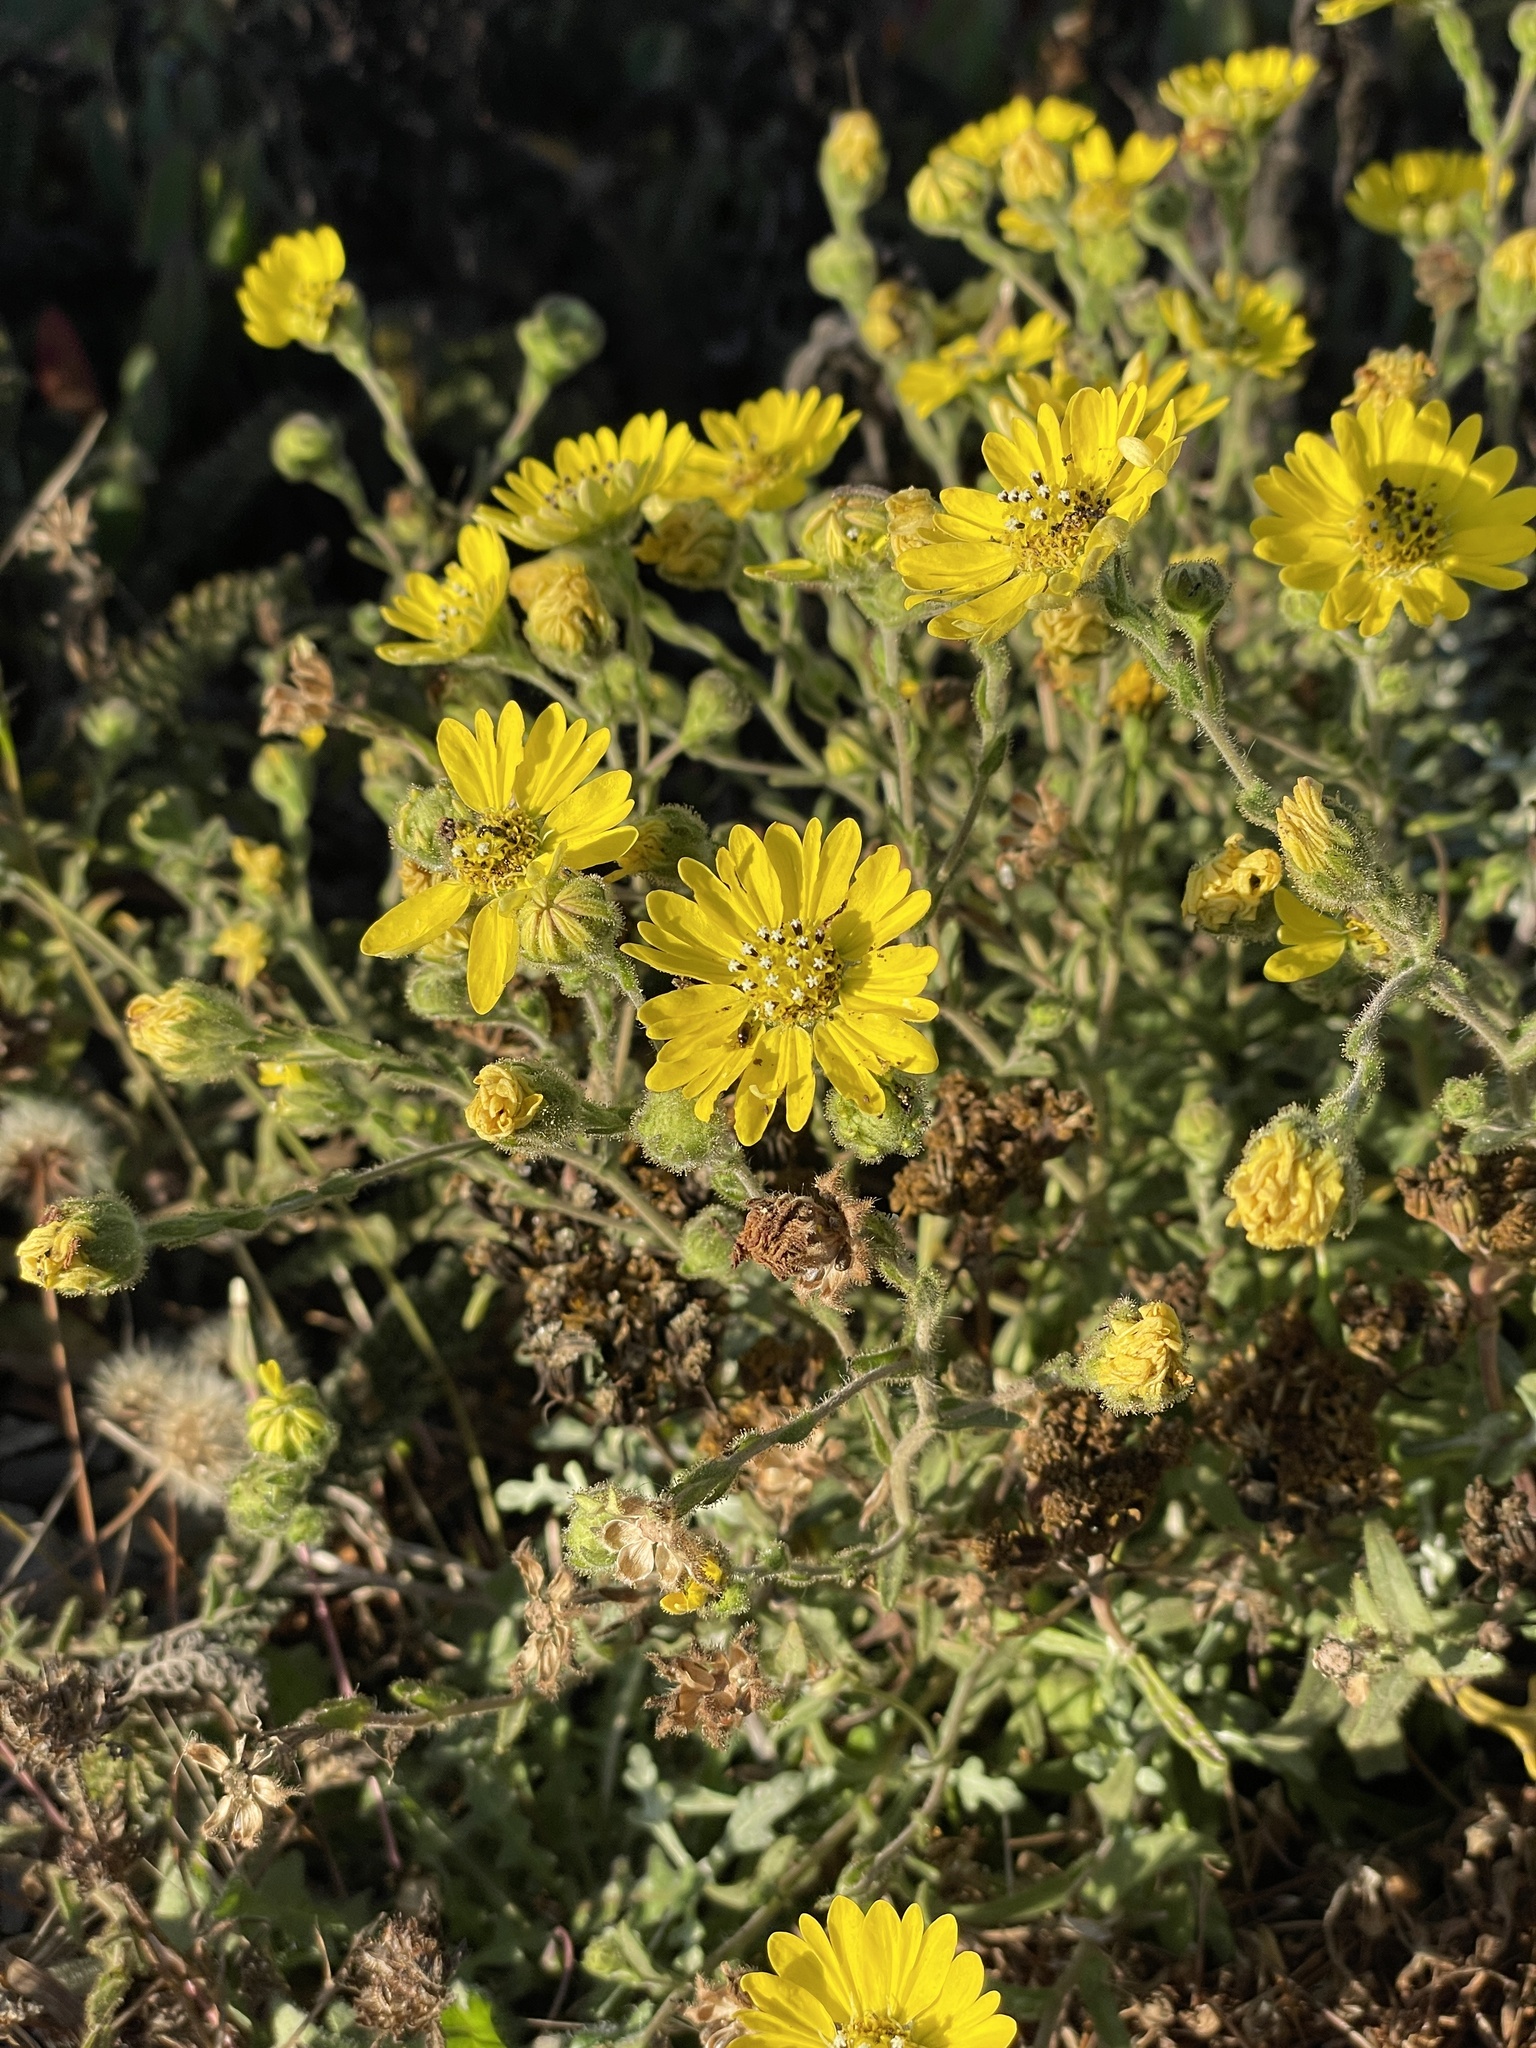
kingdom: Plantae
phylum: Tracheophyta
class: Magnoliopsida
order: Asterales
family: Asteraceae
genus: Hemizonia
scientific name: Hemizonia congesta
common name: Hayfield tarweed
